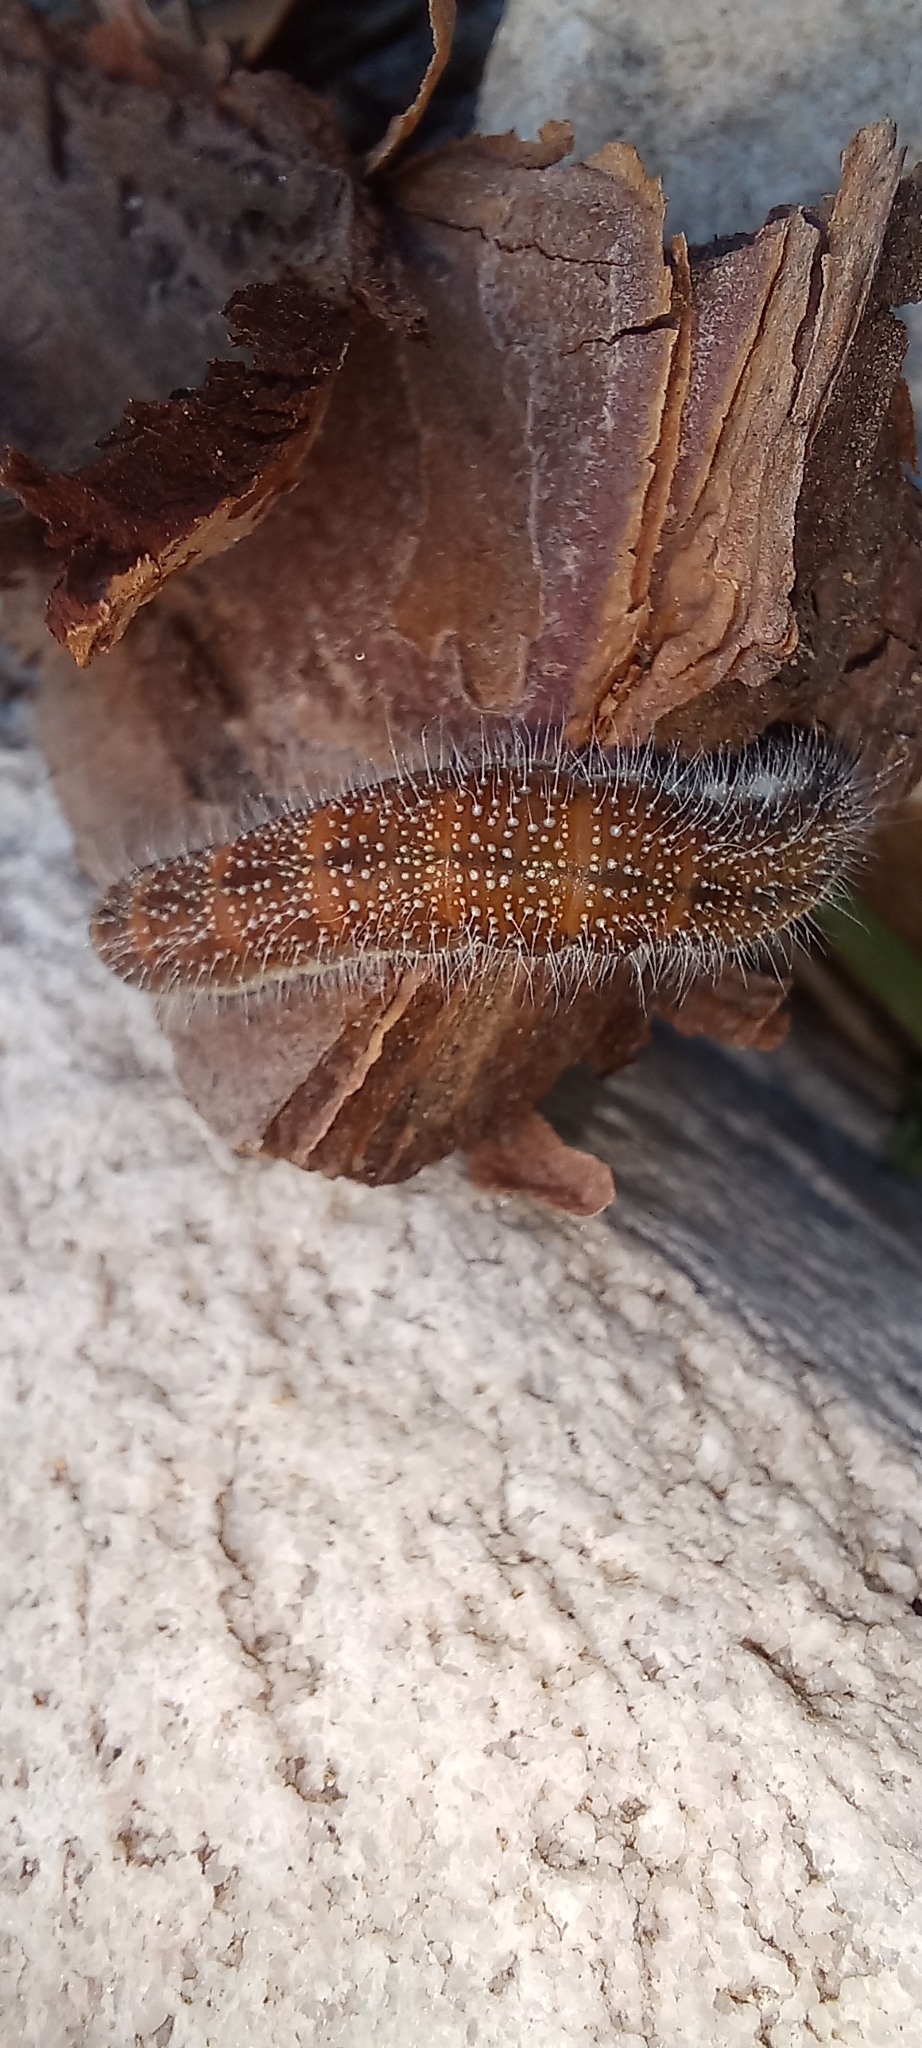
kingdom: Animalia
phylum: Arthropoda
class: Insecta
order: Lepidoptera
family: Pieridae
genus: Mylothris
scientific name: Mylothris agathina
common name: Eastern dotted border
